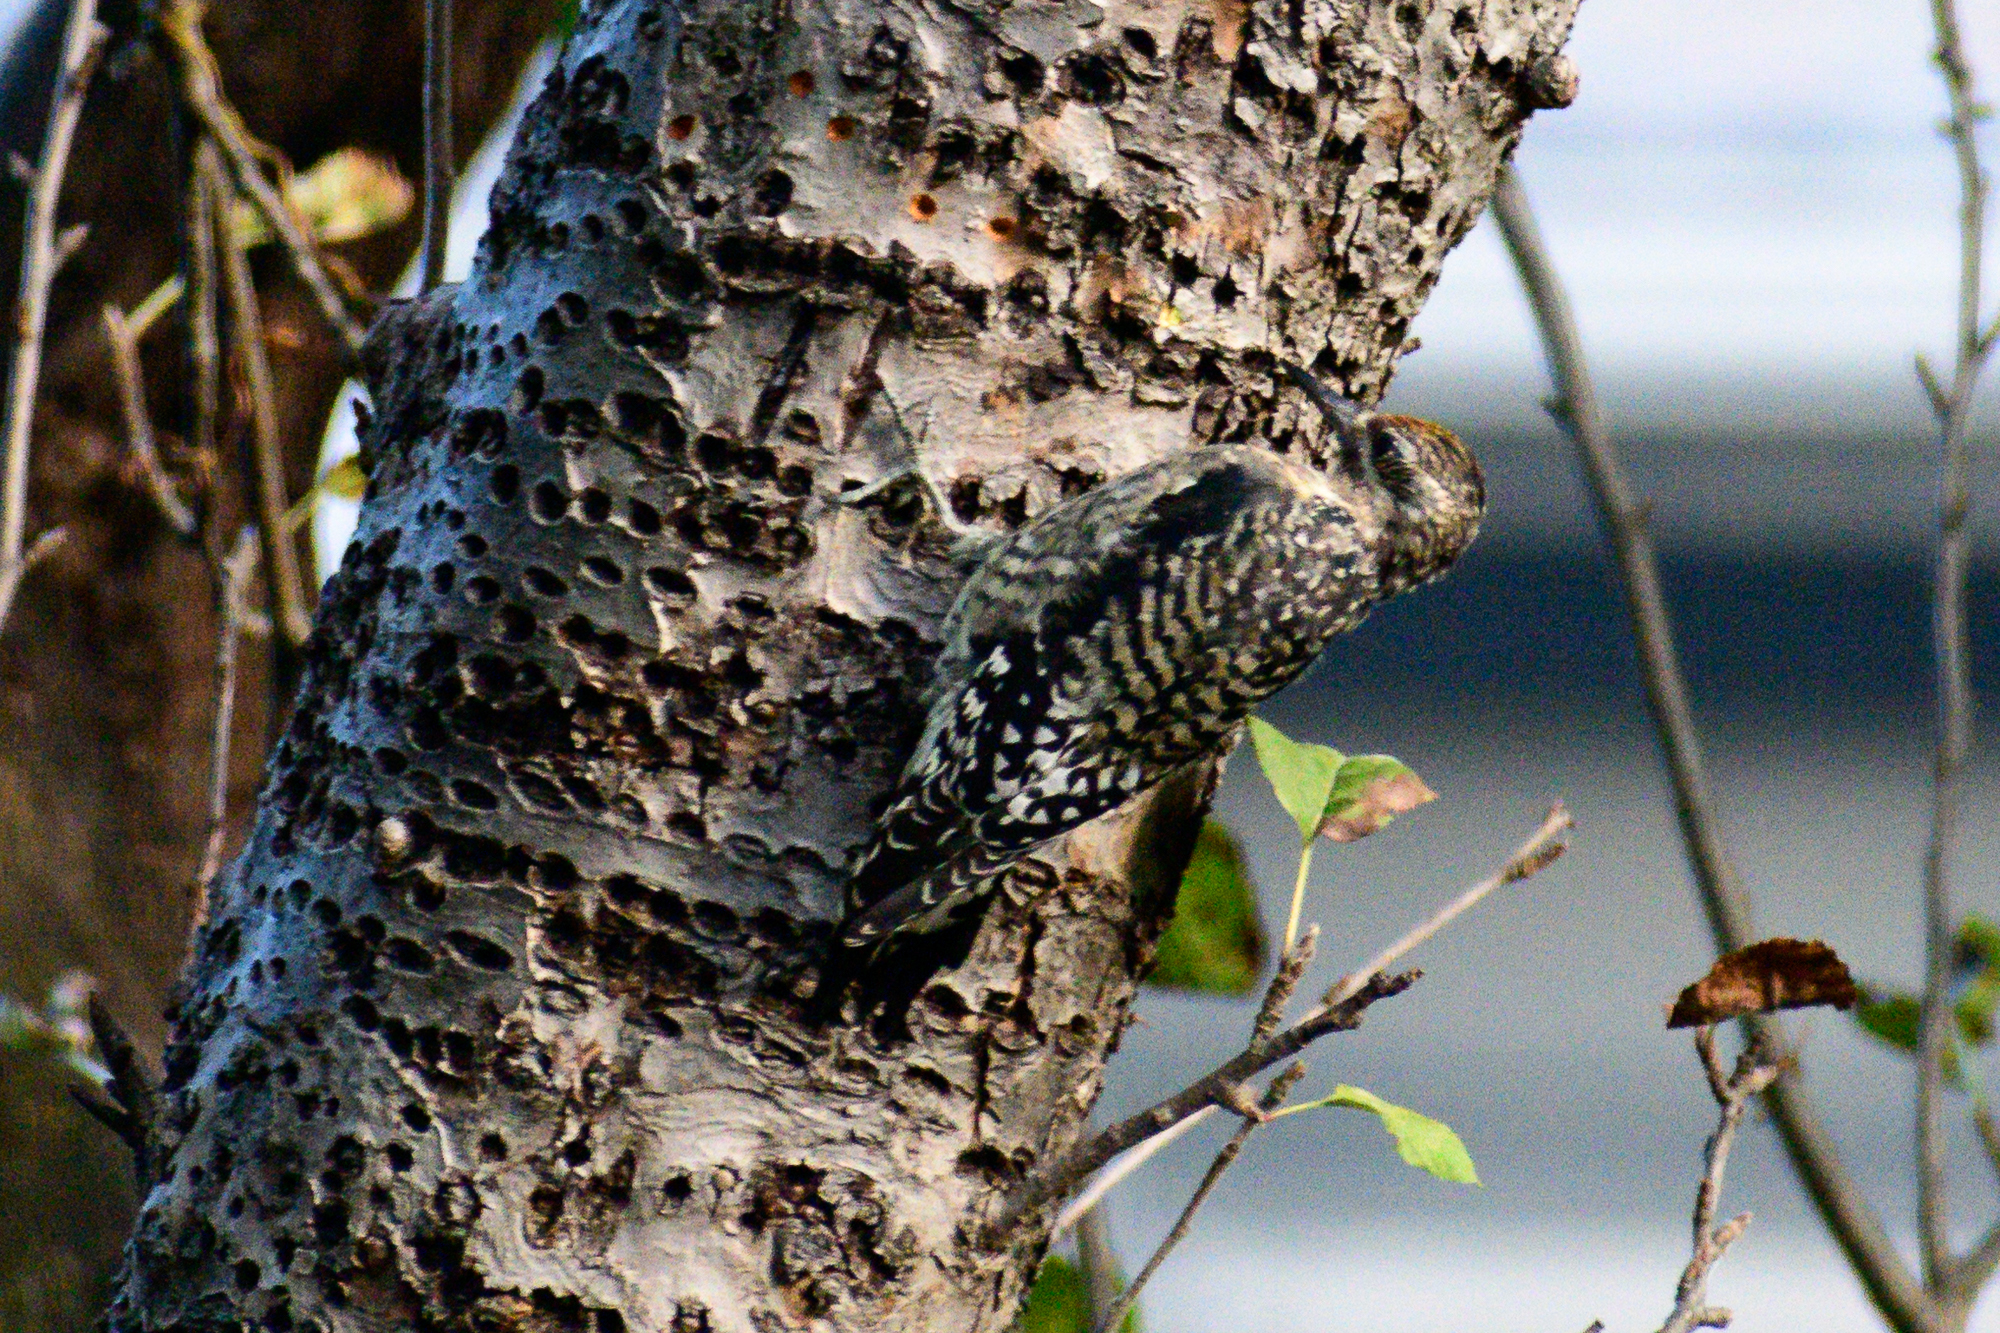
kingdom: Animalia
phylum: Chordata
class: Aves
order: Piciformes
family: Picidae
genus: Sphyrapicus
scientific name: Sphyrapicus varius
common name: Yellow-bellied sapsucker
